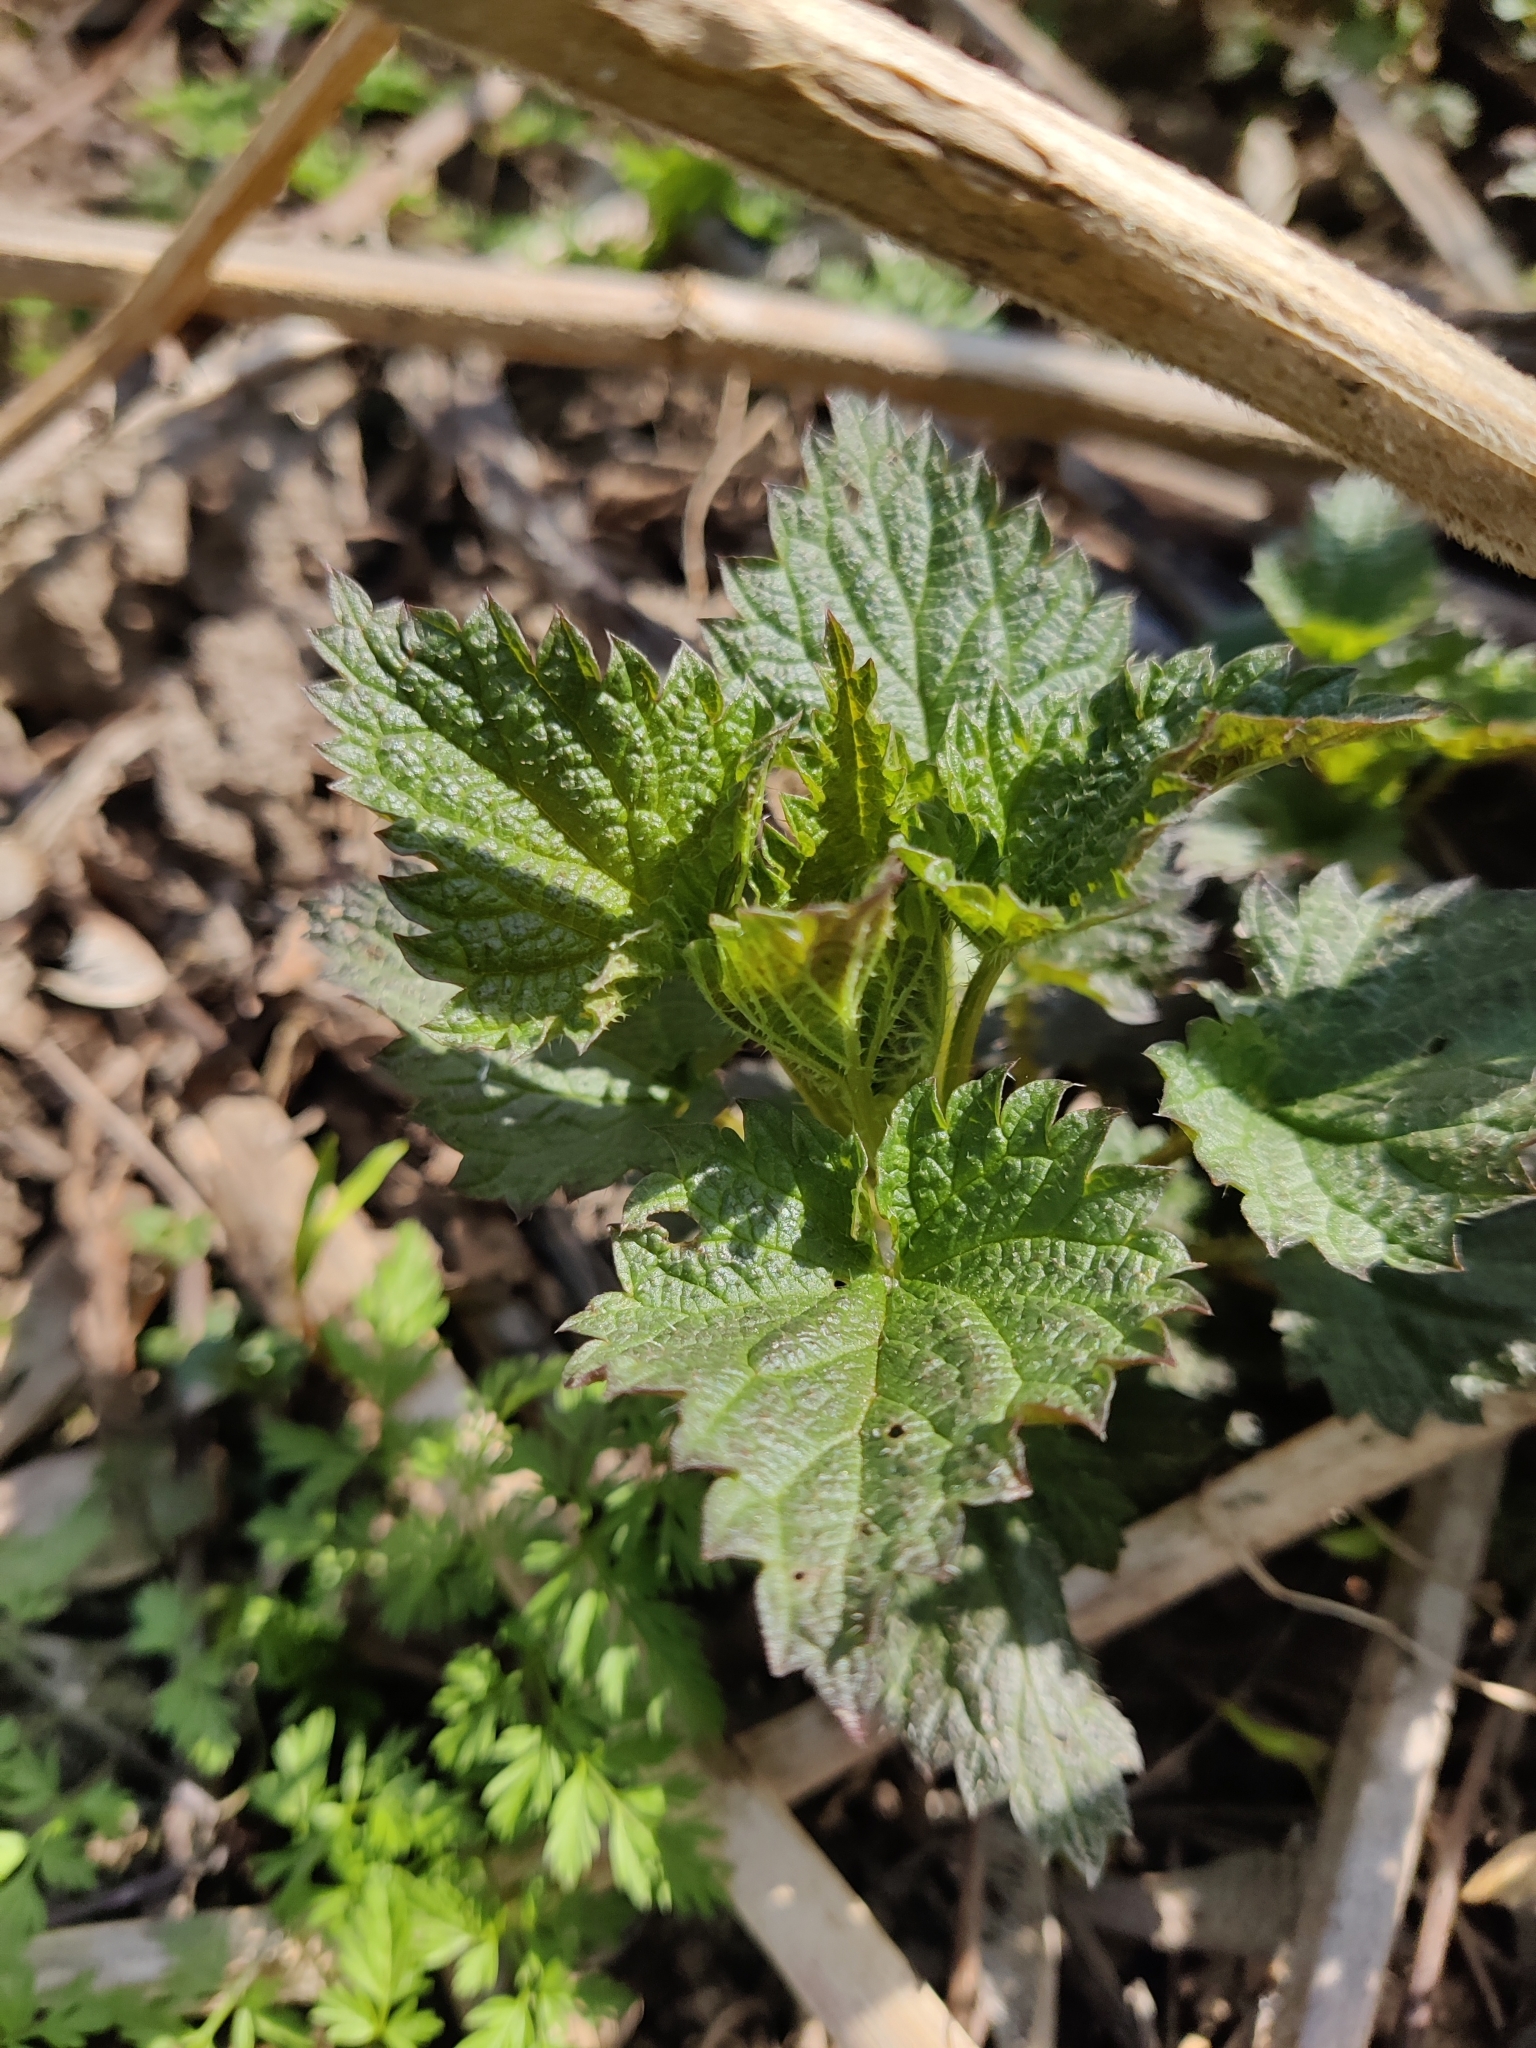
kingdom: Plantae
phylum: Tracheophyta
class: Magnoliopsida
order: Rosales
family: Urticaceae
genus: Urtica
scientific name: Urtica dioica
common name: Common nettle
